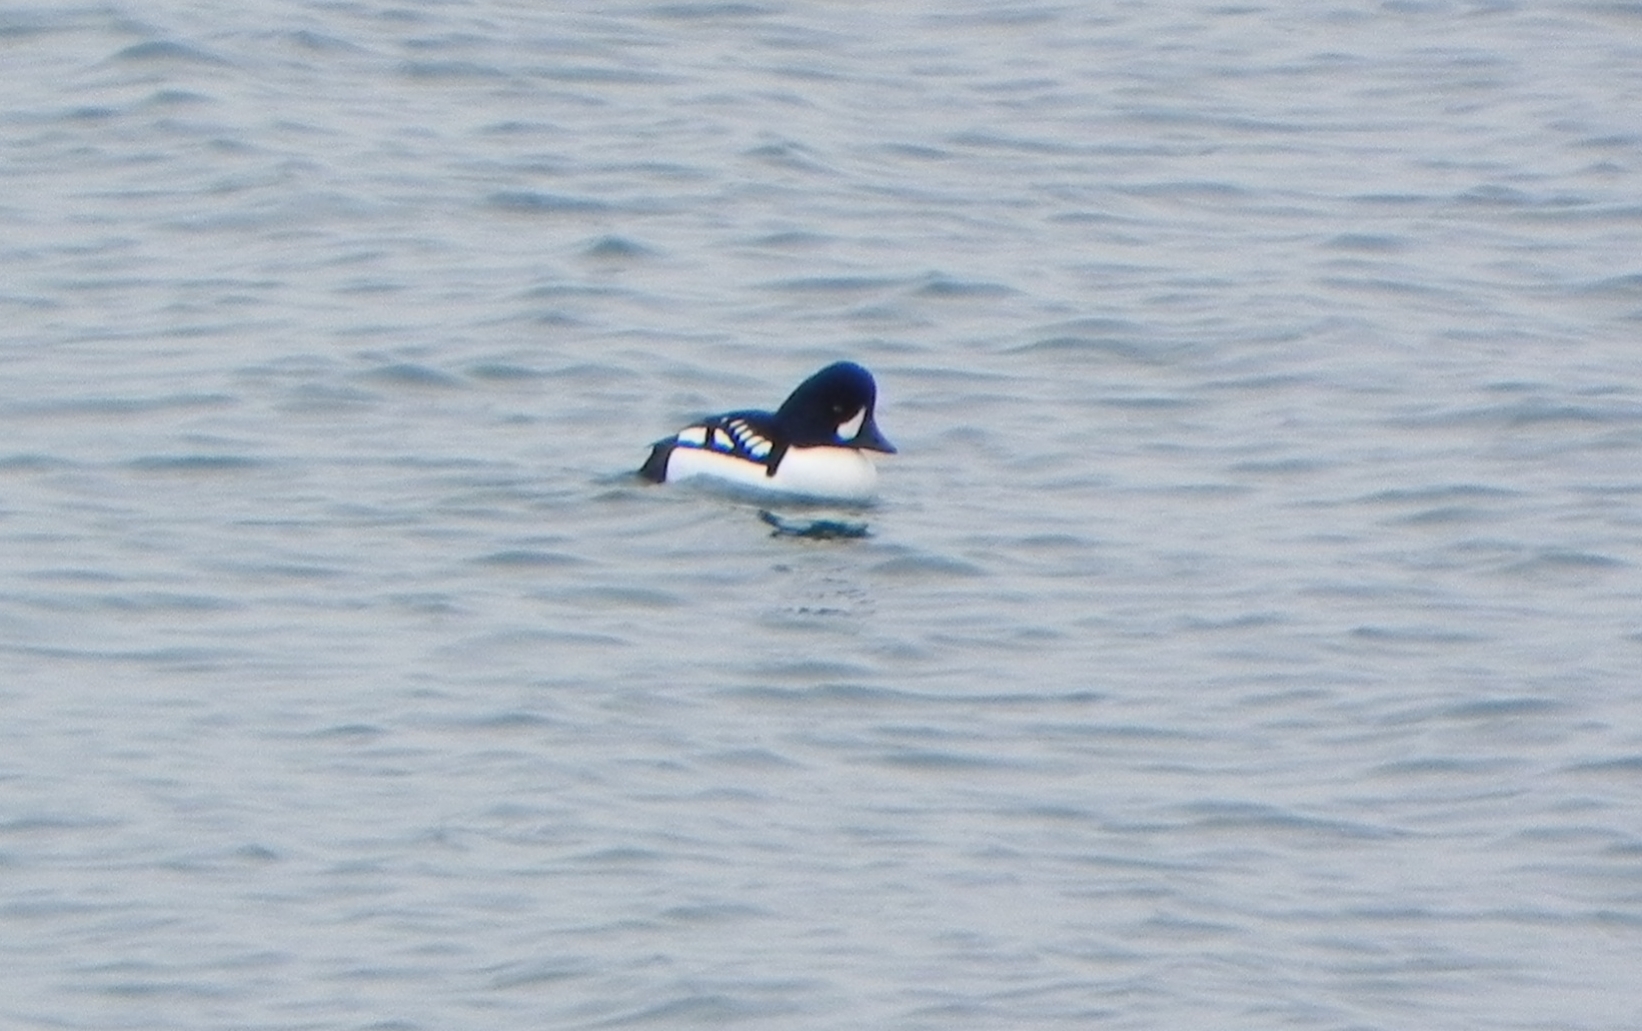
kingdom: Animalia
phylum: Chordata
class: Aves
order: Anseriformes
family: Anatidae
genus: Bucephala
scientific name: Bucephala islandica
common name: Barrow's goldeneye
